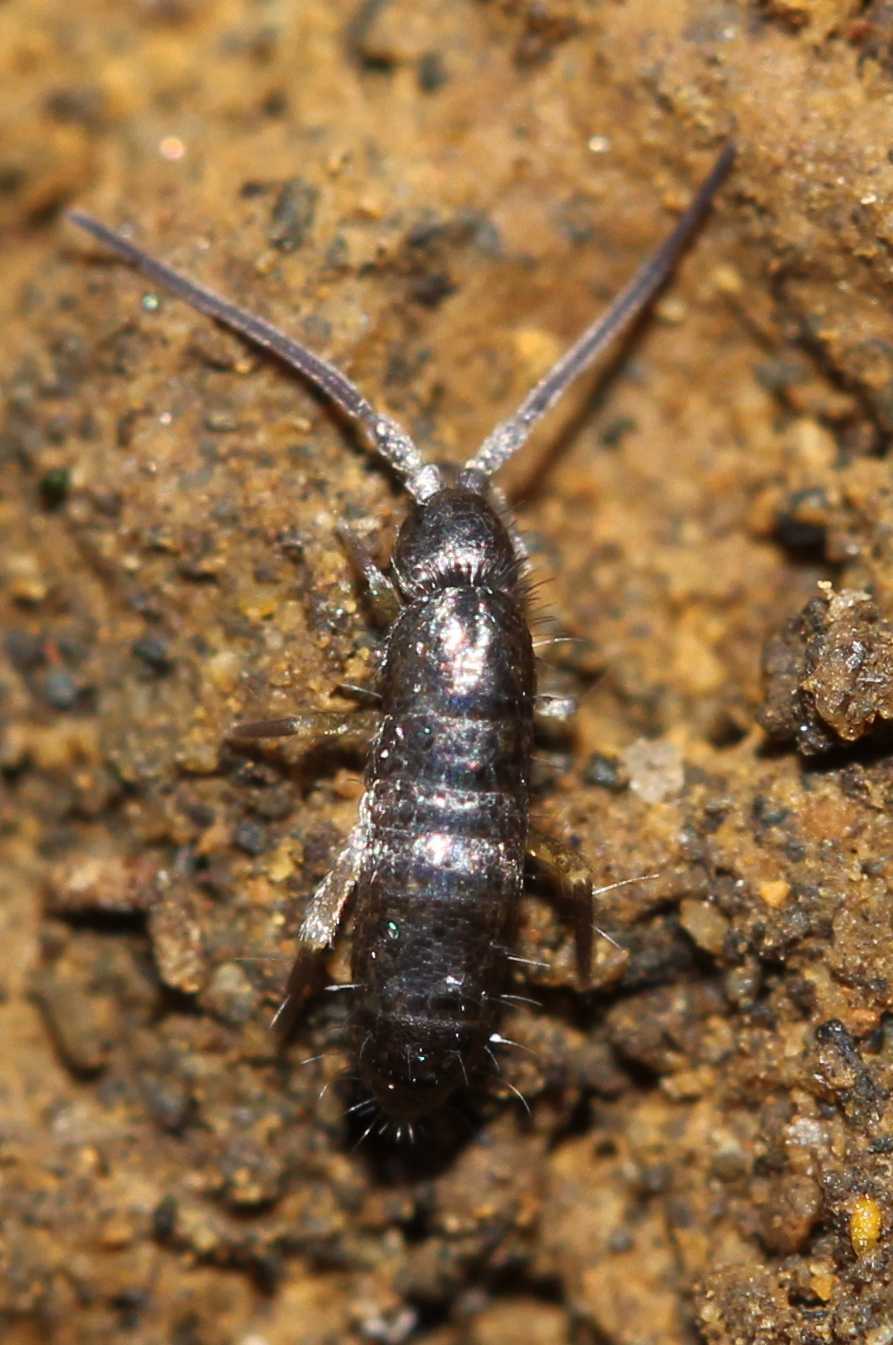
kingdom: Animalia
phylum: Arthropoda
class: Collembola
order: Entomobryomorpha
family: Tomoceridae
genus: Tomocerus
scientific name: Tomocerus
